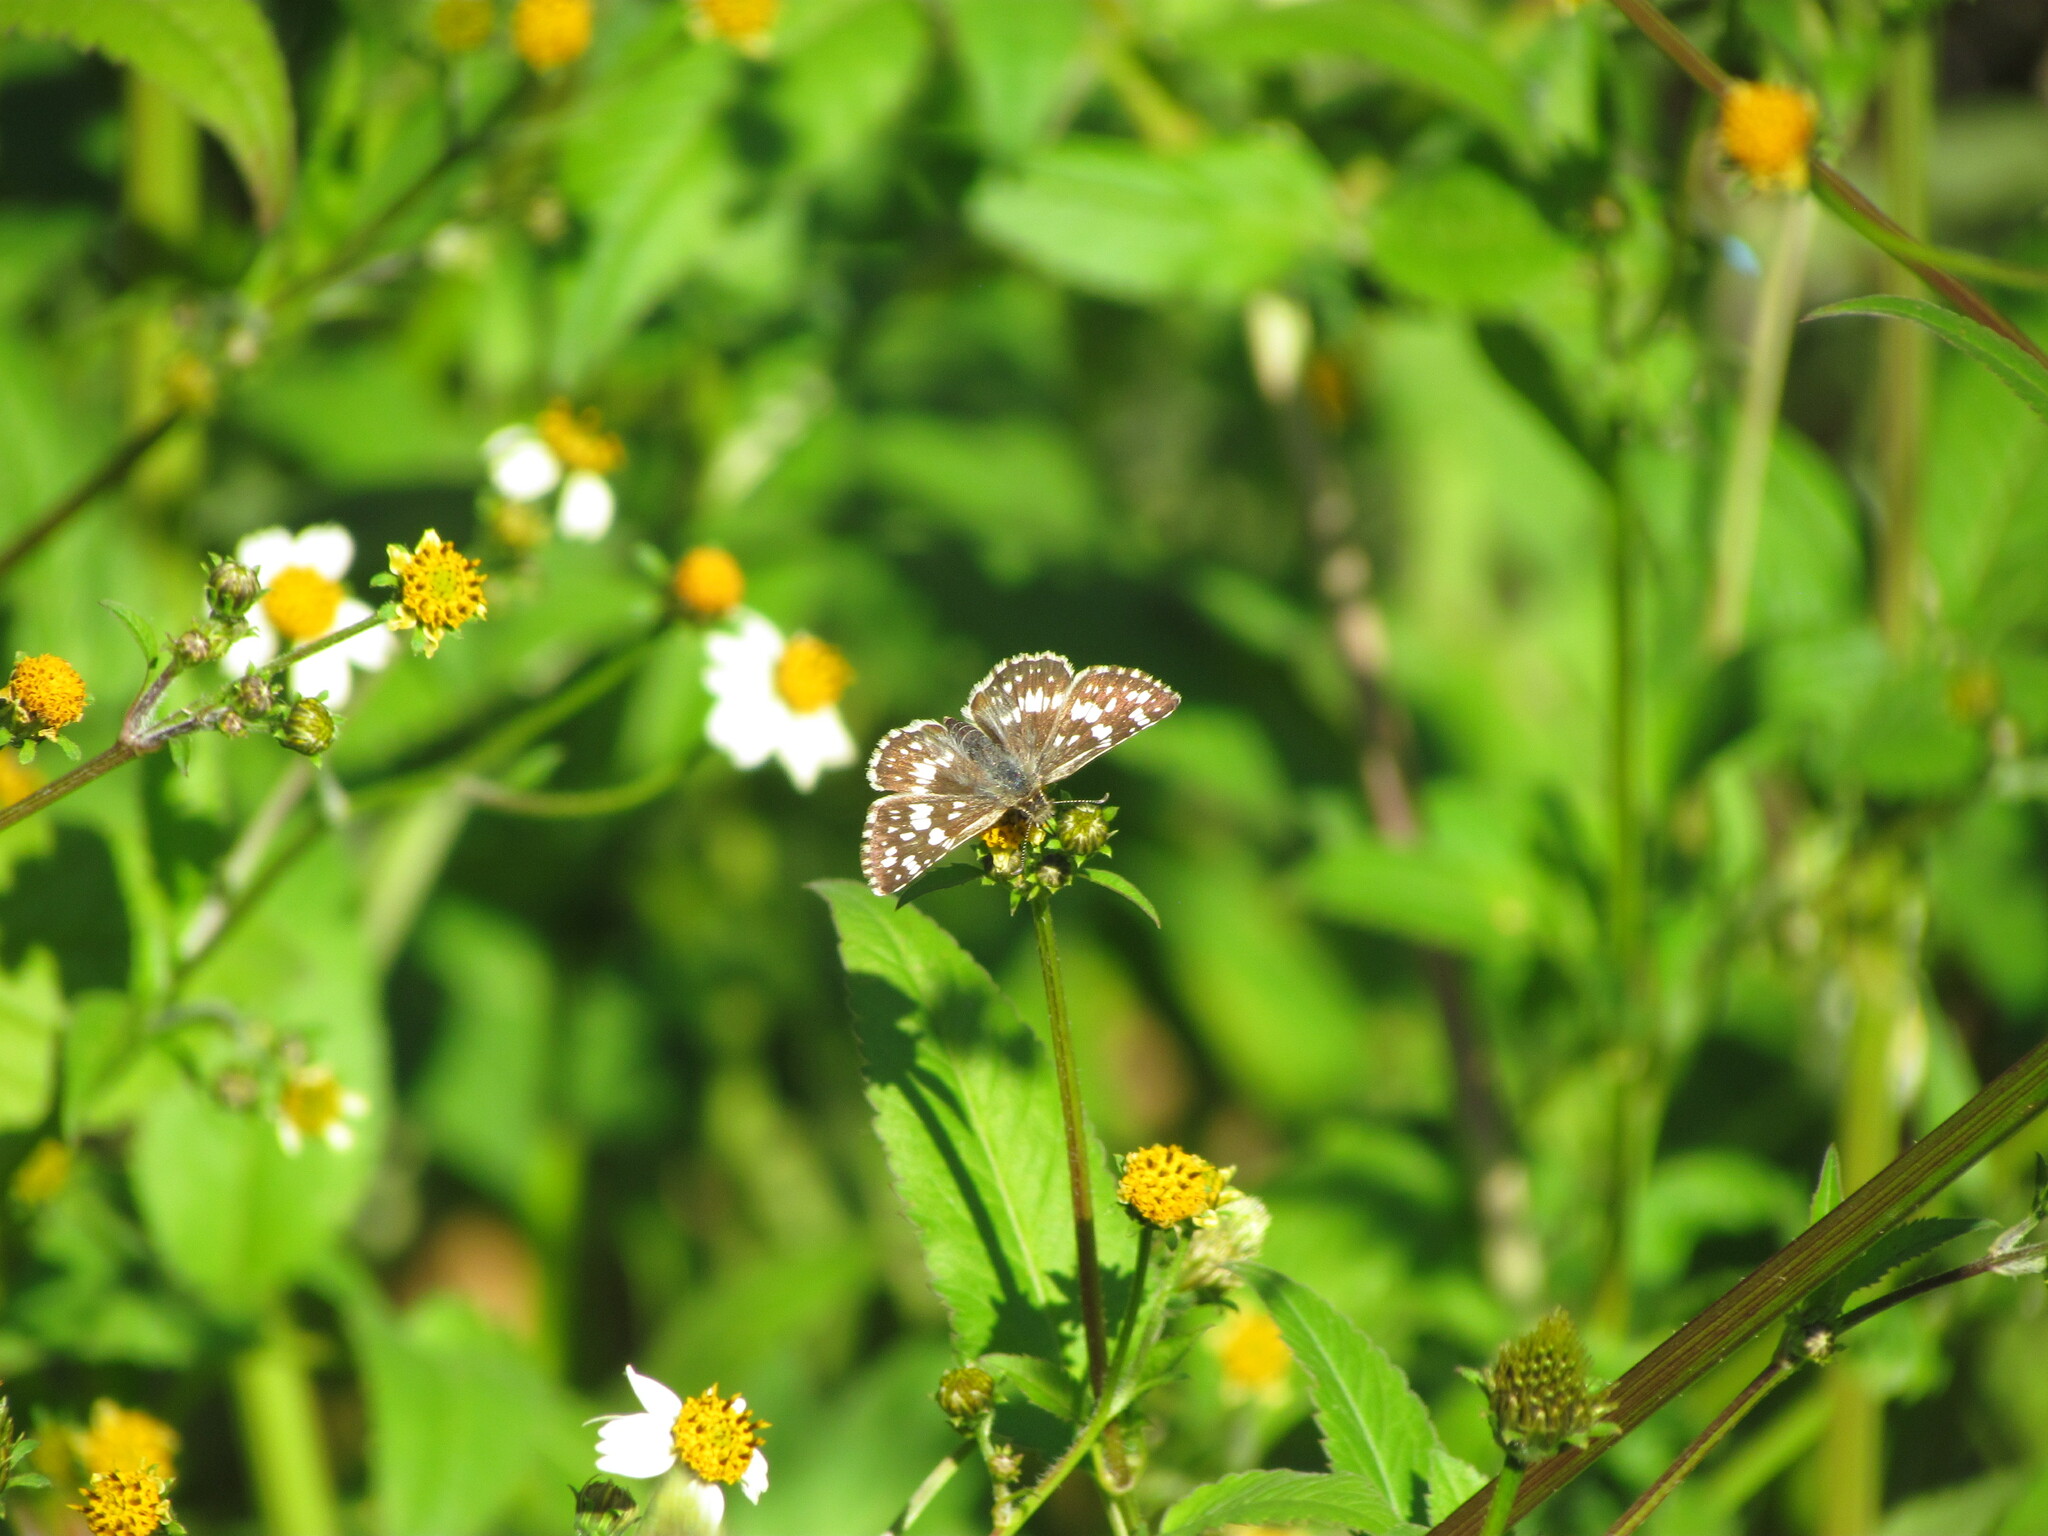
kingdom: Animalia
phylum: Arthropoda
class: Insecta
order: Lepidoptera
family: Hesperiidae
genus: Burnsius
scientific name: Burnsius orcynoides
